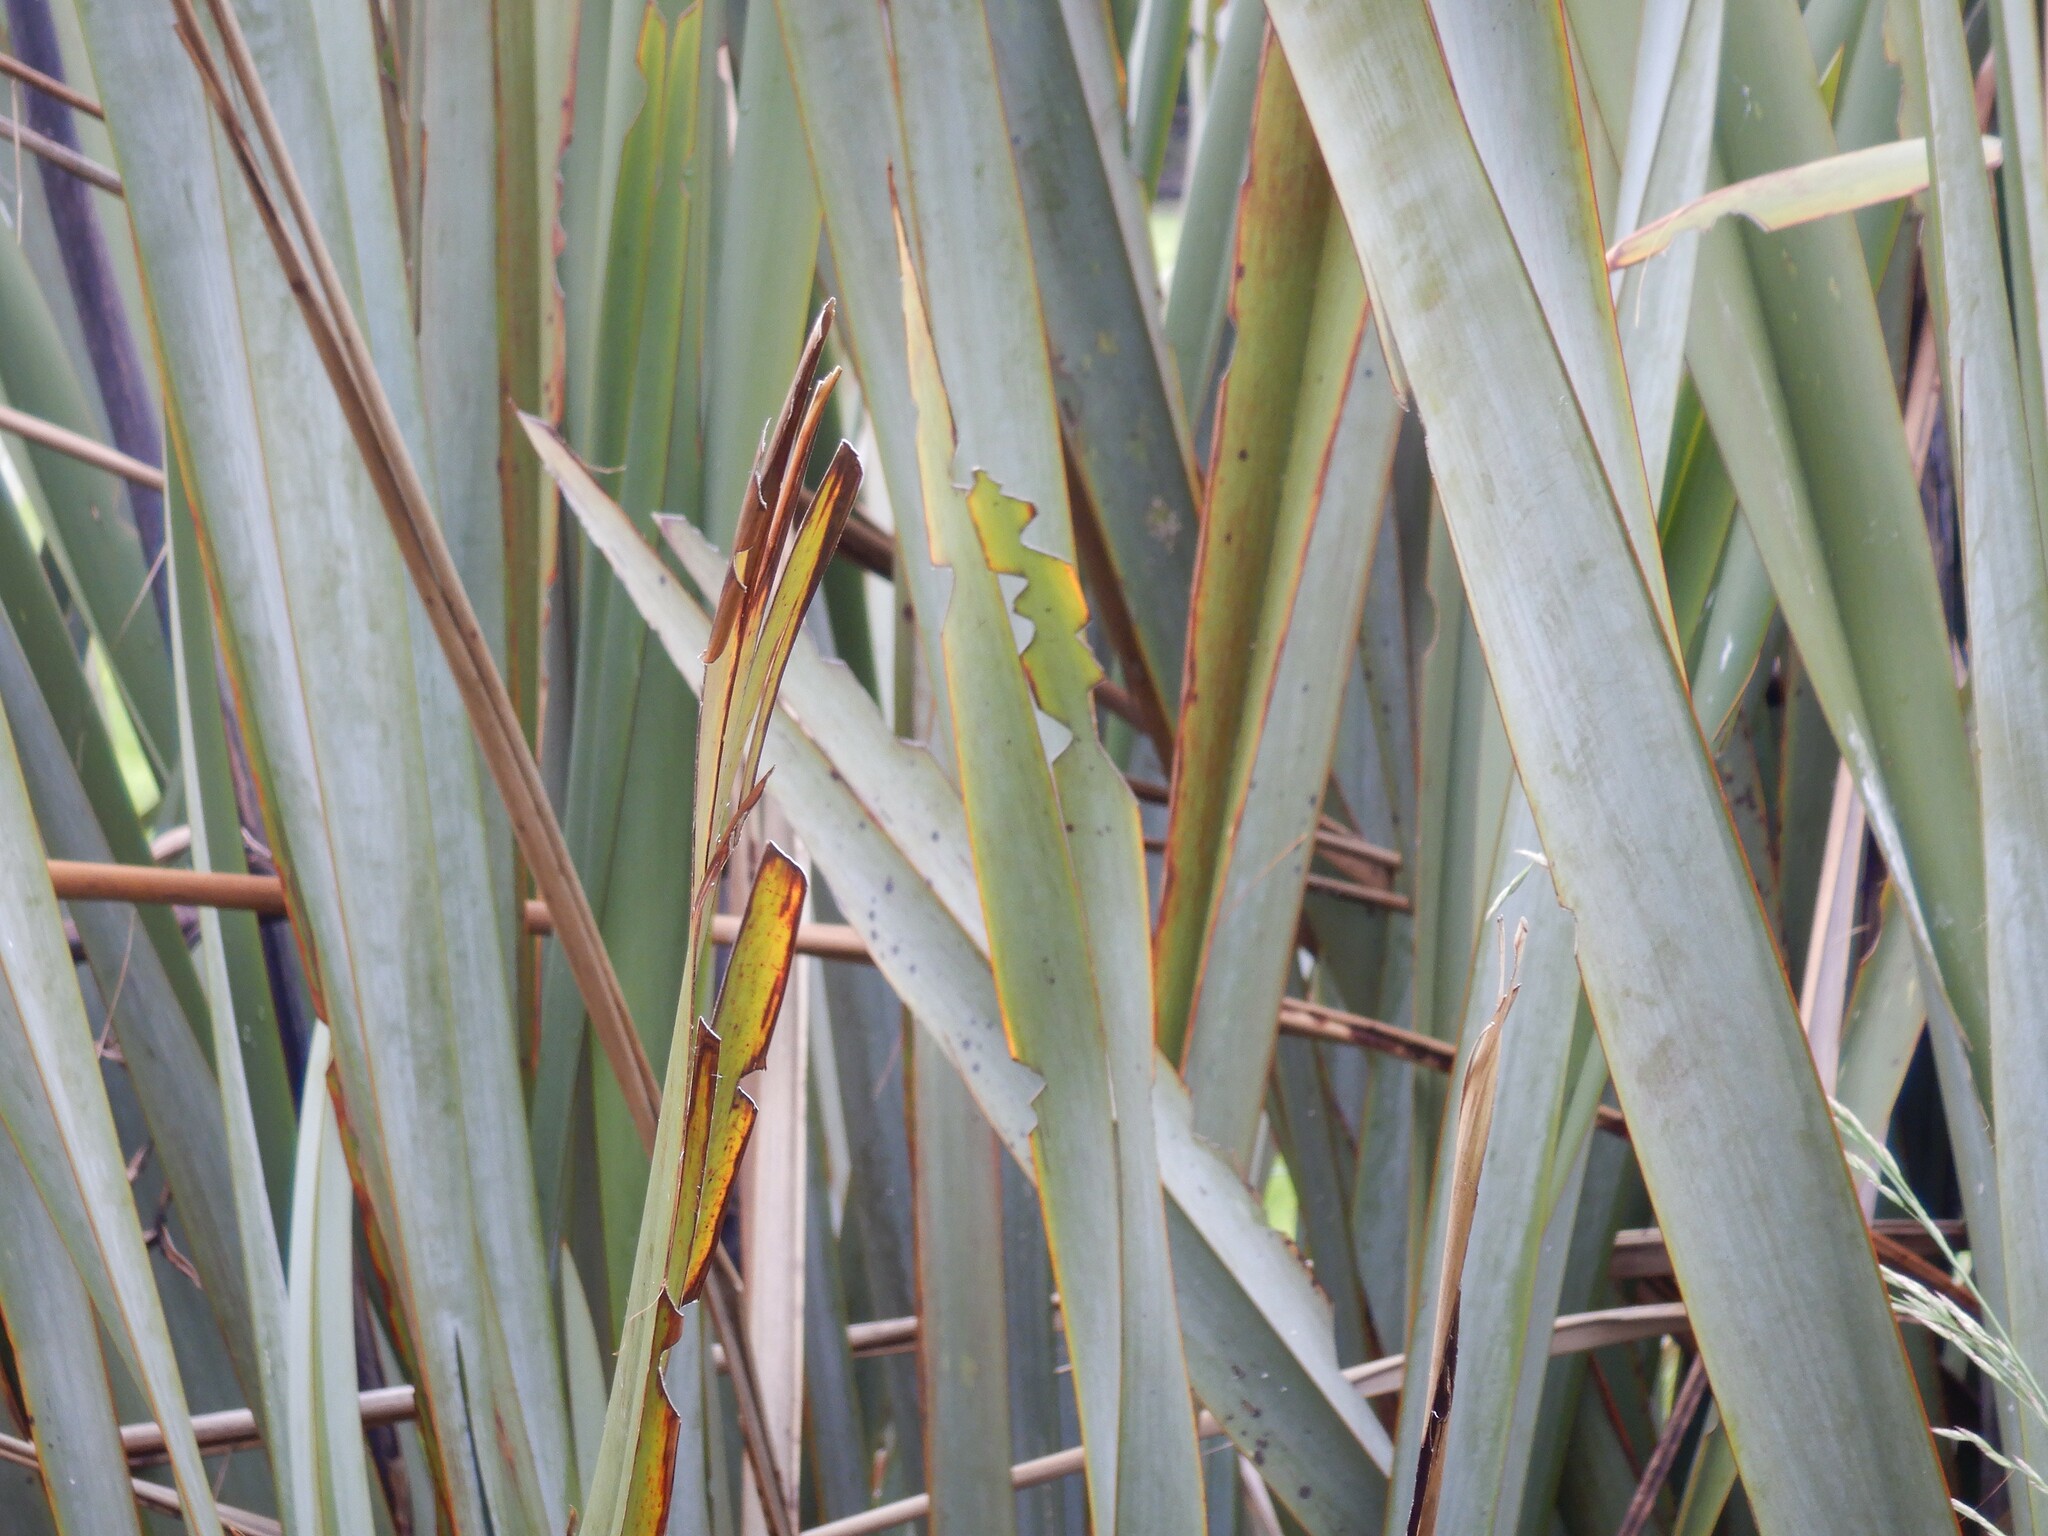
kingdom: Animalia
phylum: Arthropoda
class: Insecta
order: Lepidoptera
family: Noctuidae
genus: Ichneutica
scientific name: Ichneutica
